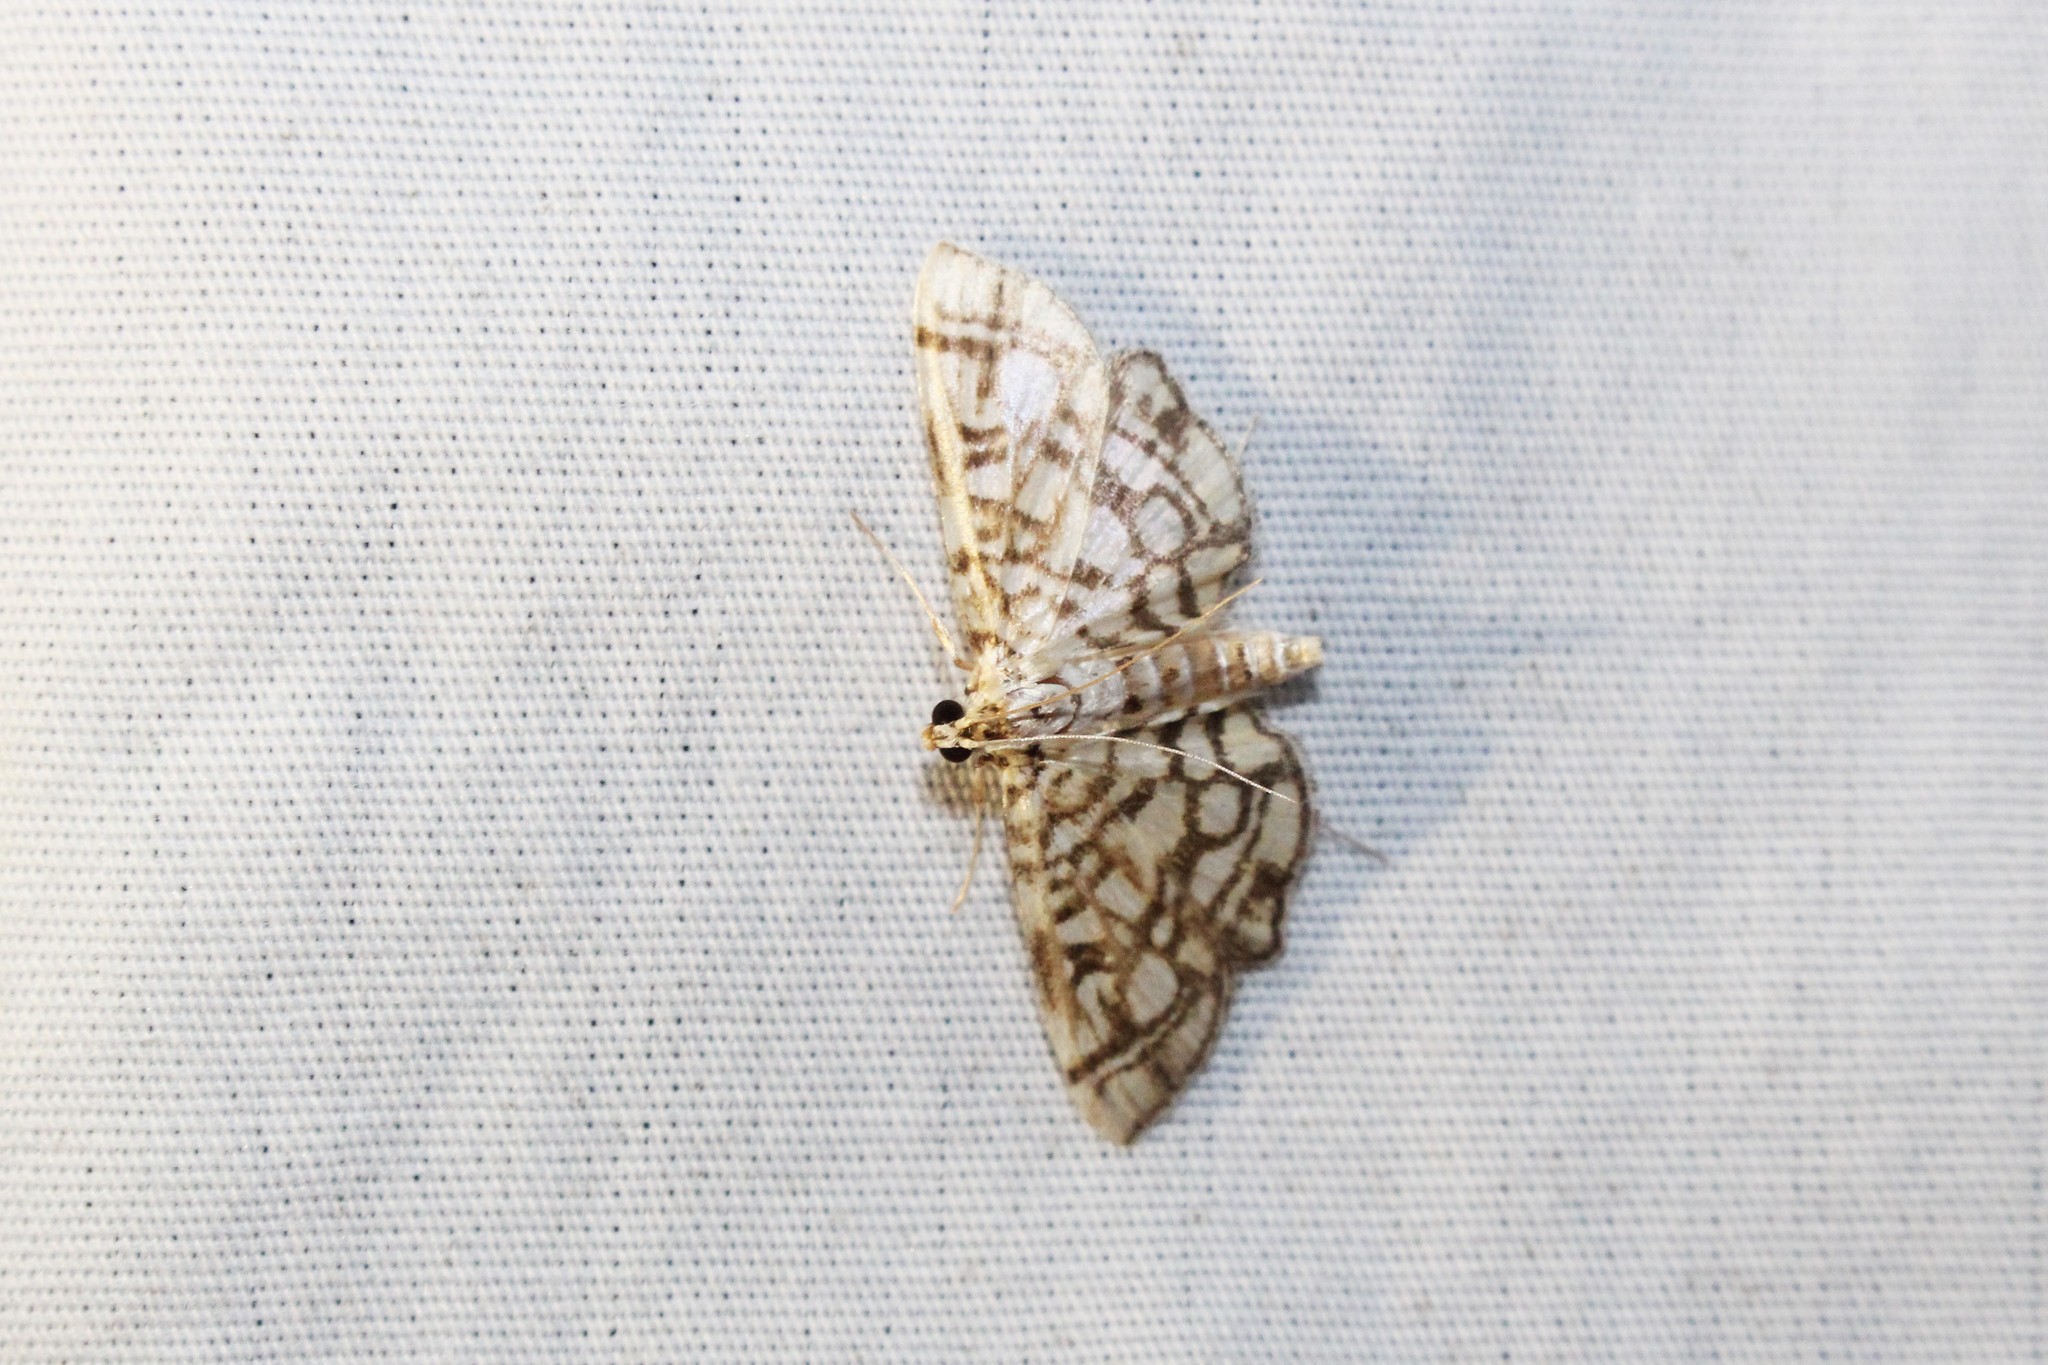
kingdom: Animalia
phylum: Arthropoda
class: Insecta
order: Lepidoptera
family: Crambidae
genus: Lygropia
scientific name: Lygropia rivulalis
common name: Bog lygropia moth
